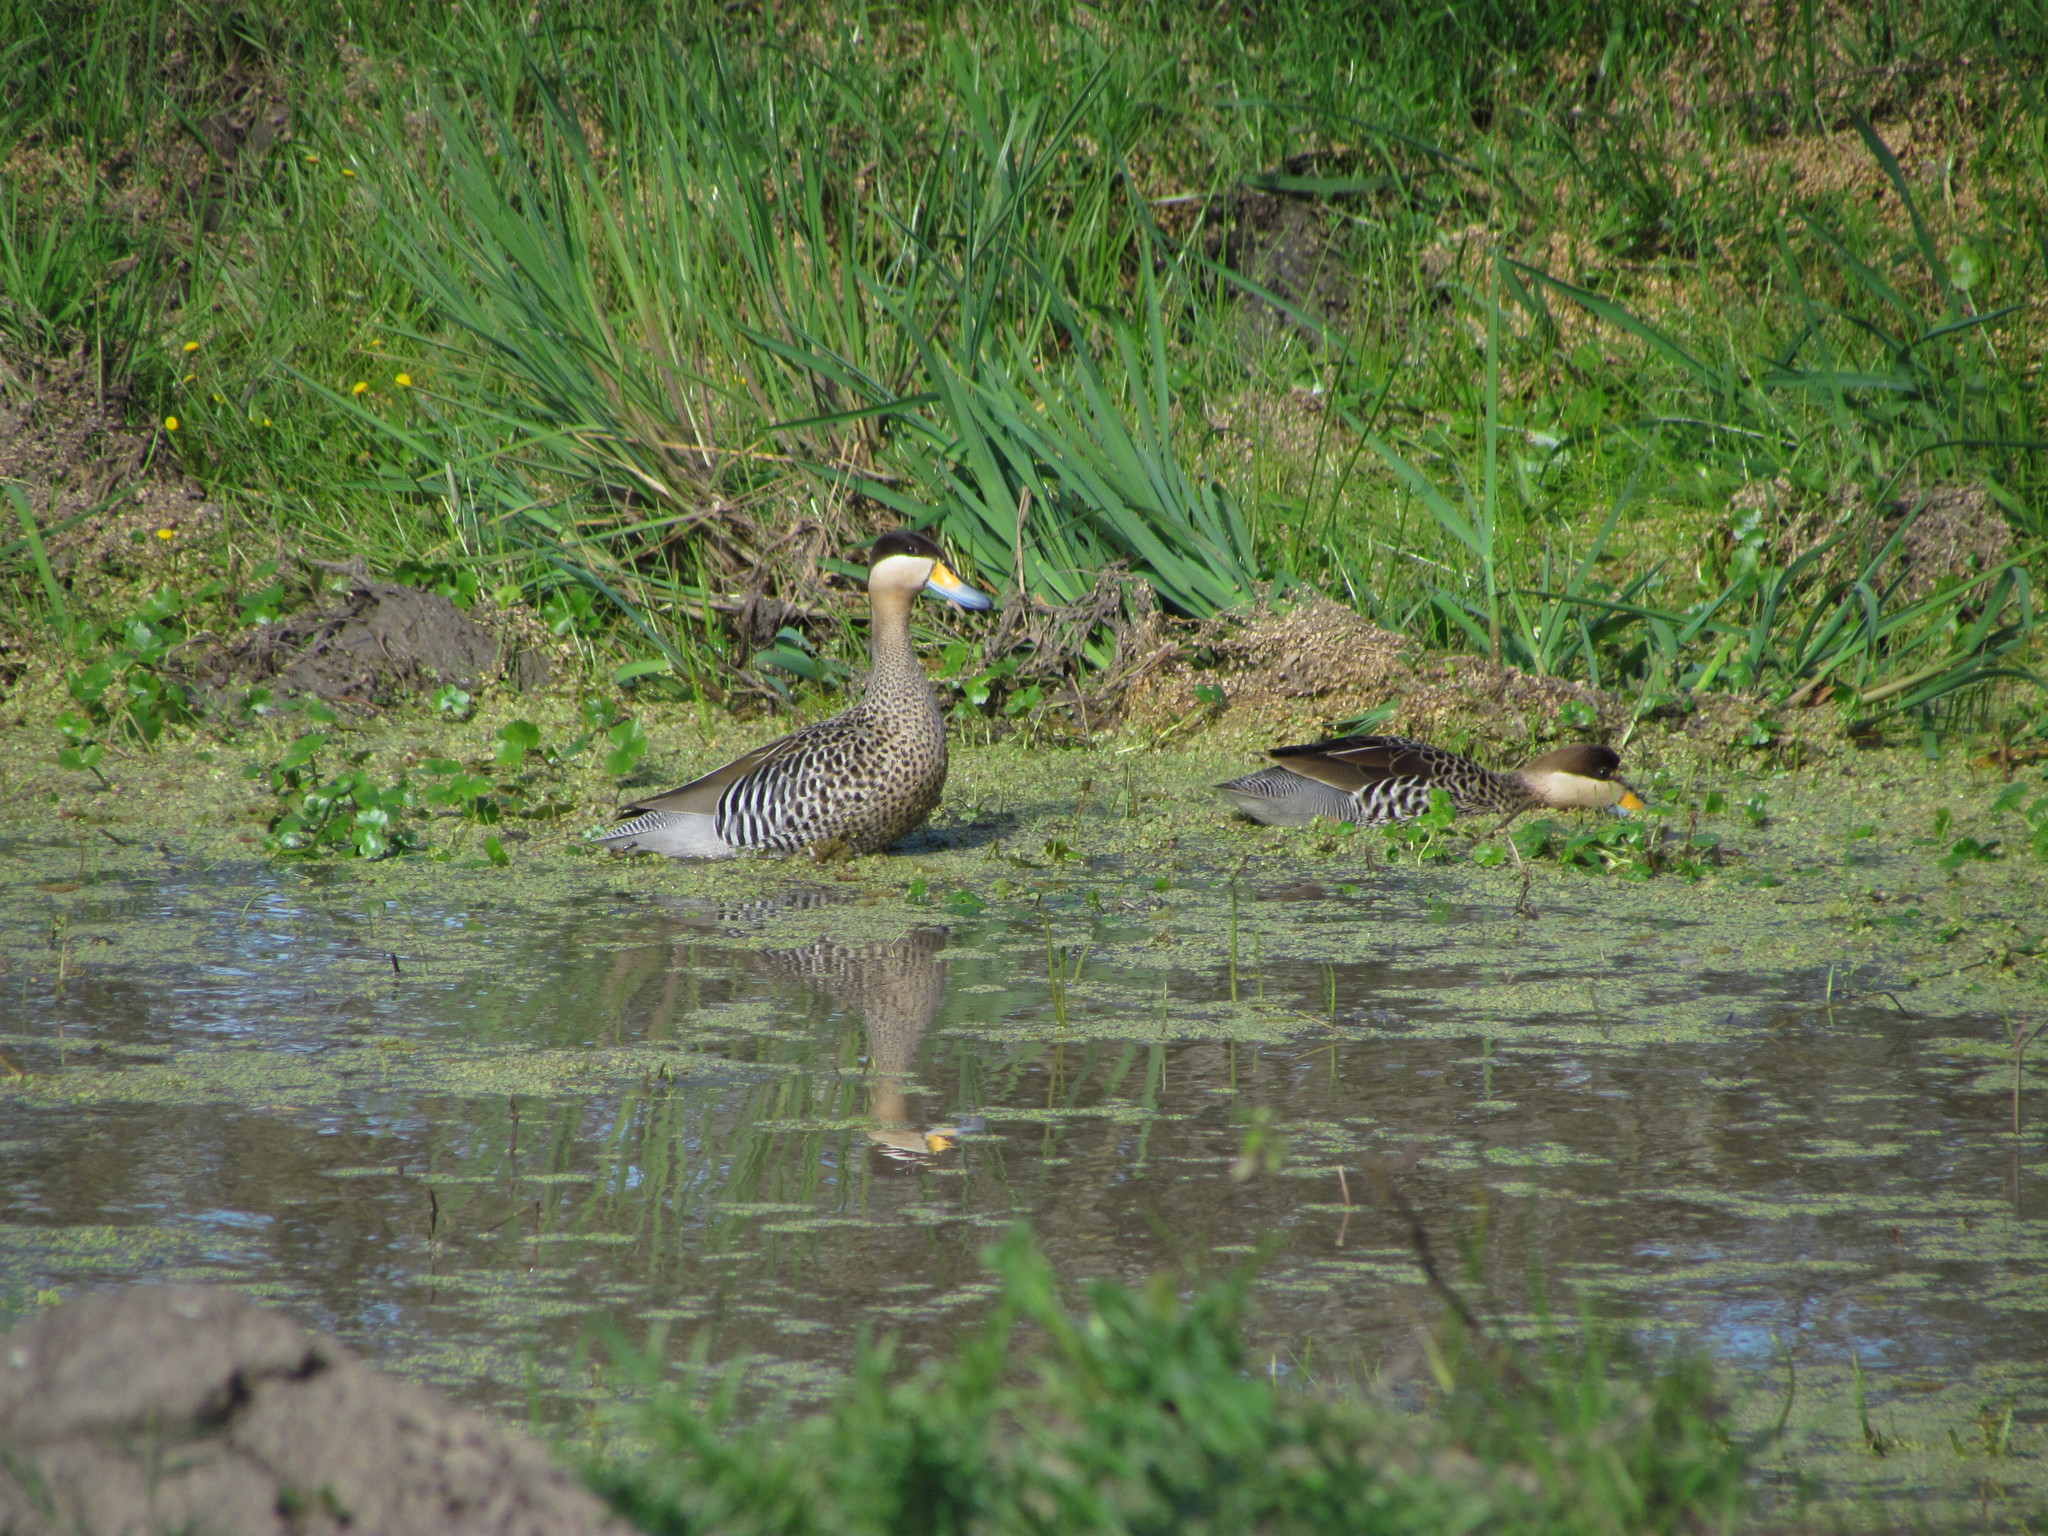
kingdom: Animalia
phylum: Chordata
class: Aves
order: Anseriformes
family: Anatidae
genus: Spatula
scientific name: Spatula versicolor
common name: Silver teal
